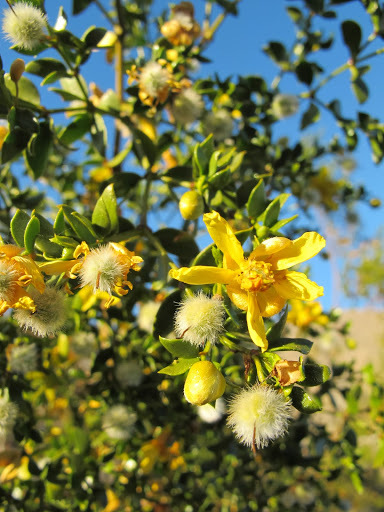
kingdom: Plantae
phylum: Tracheophyta
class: Magnoliopsida
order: Zygophyllales
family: Zygophyllaceae
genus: Larrea
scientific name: Larrea tridentata
